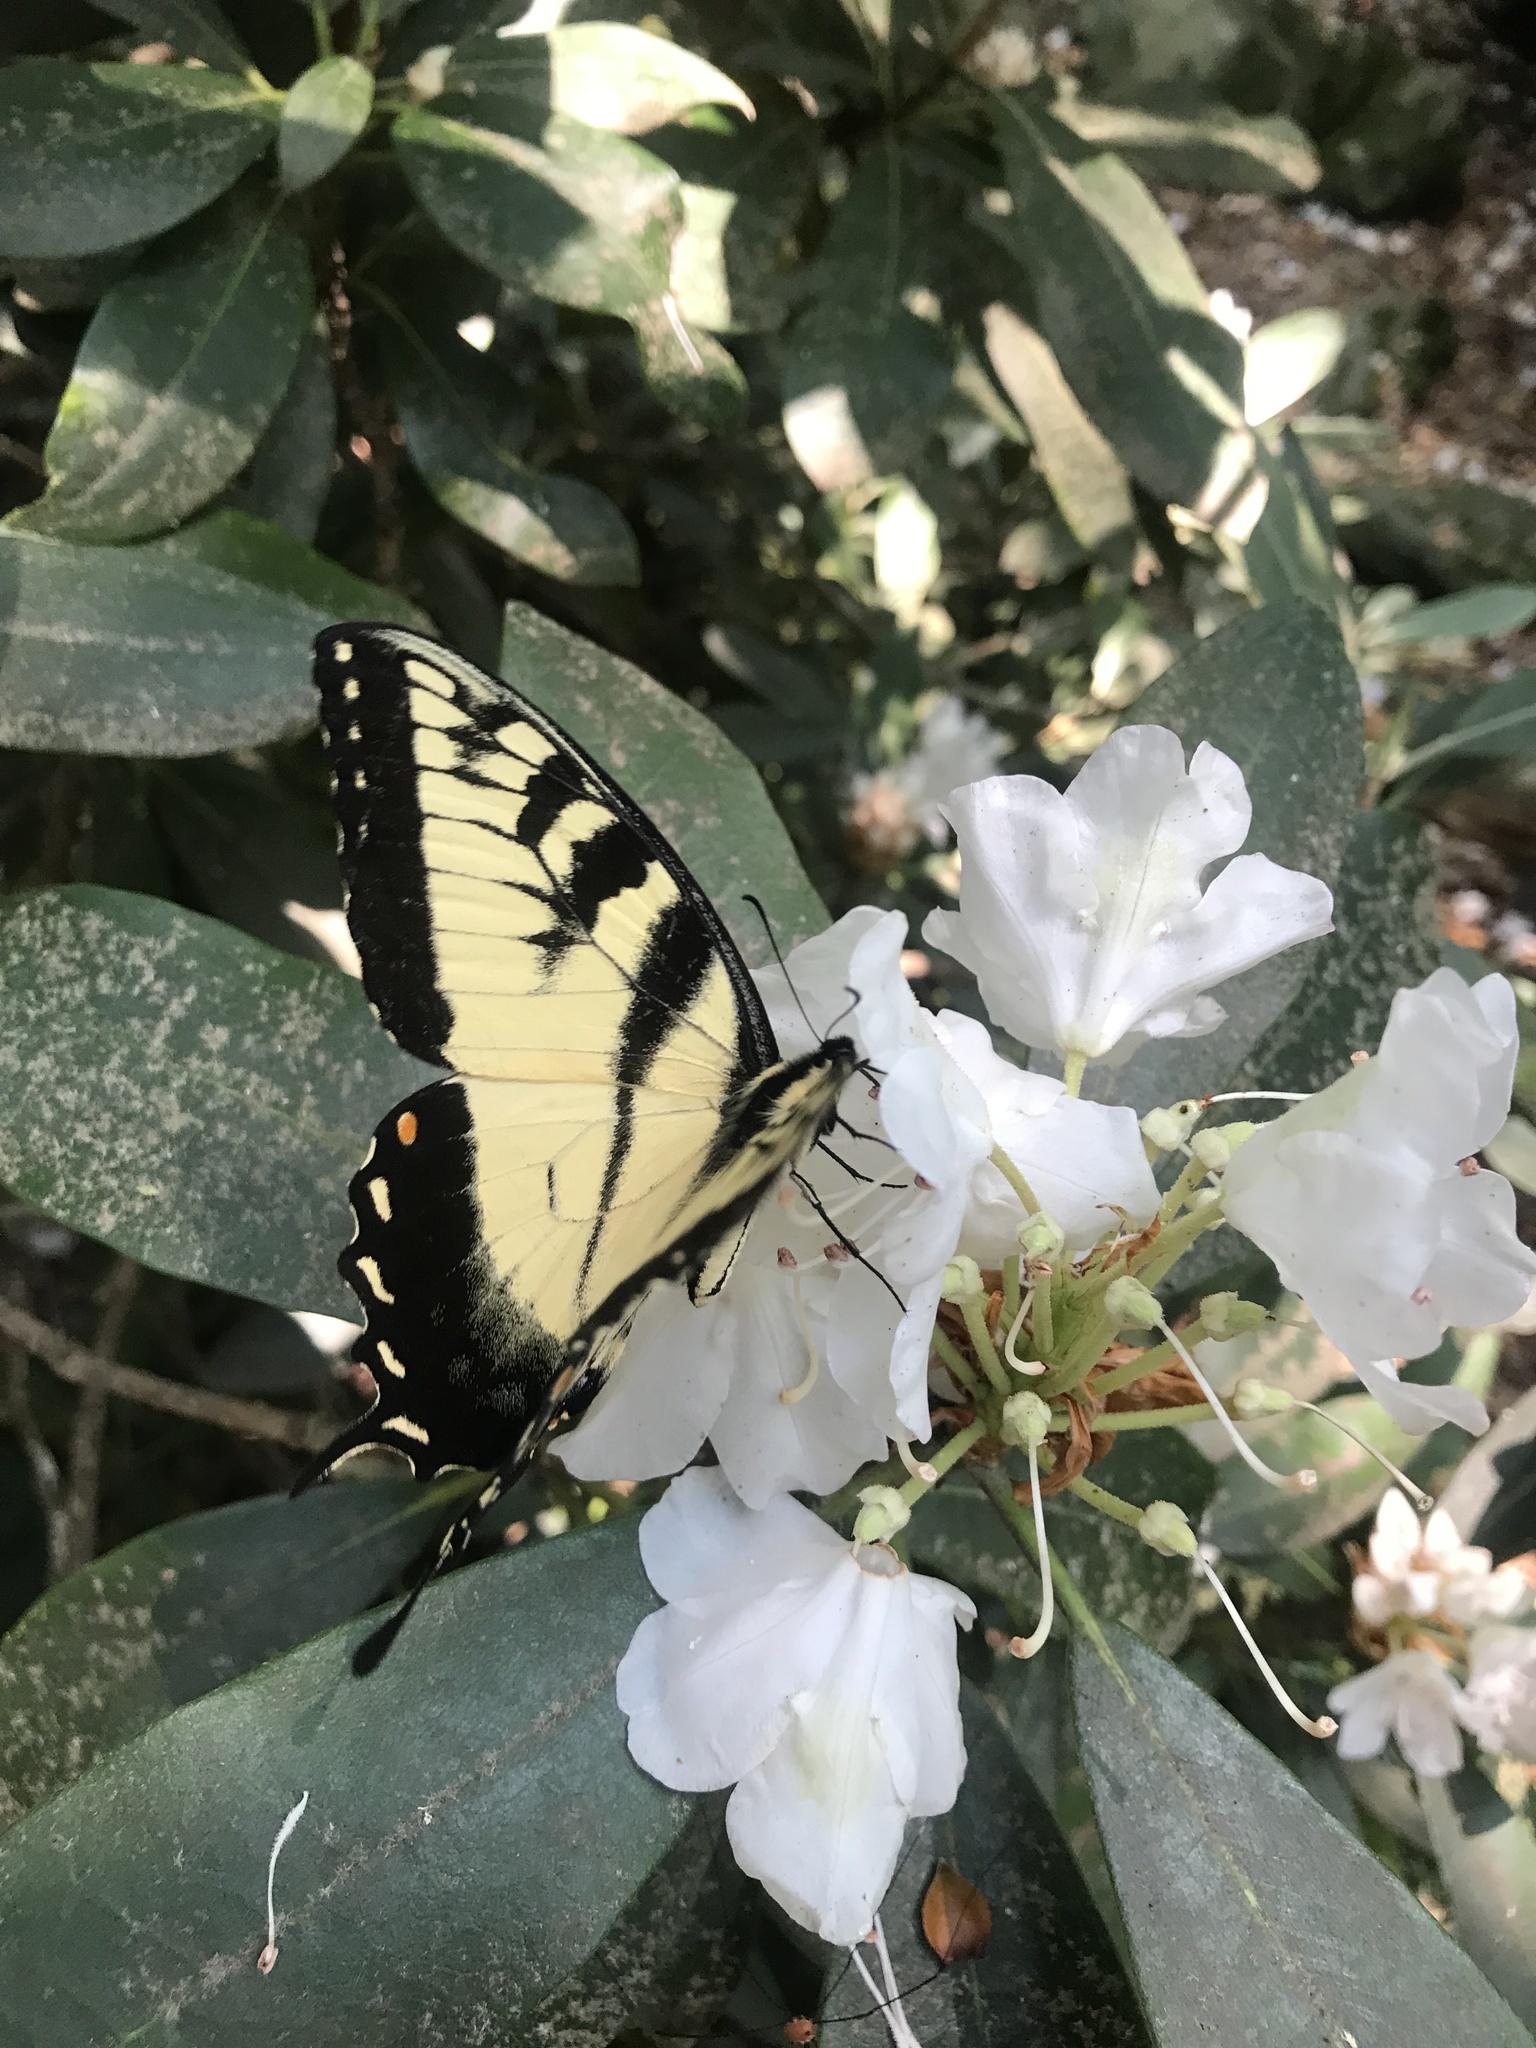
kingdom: Animalia
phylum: Arthropoda
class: Insecta
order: Lepidoptera
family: Papilionidae
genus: Papilio
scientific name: Papilio glaucus
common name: Tiger swallowtail
